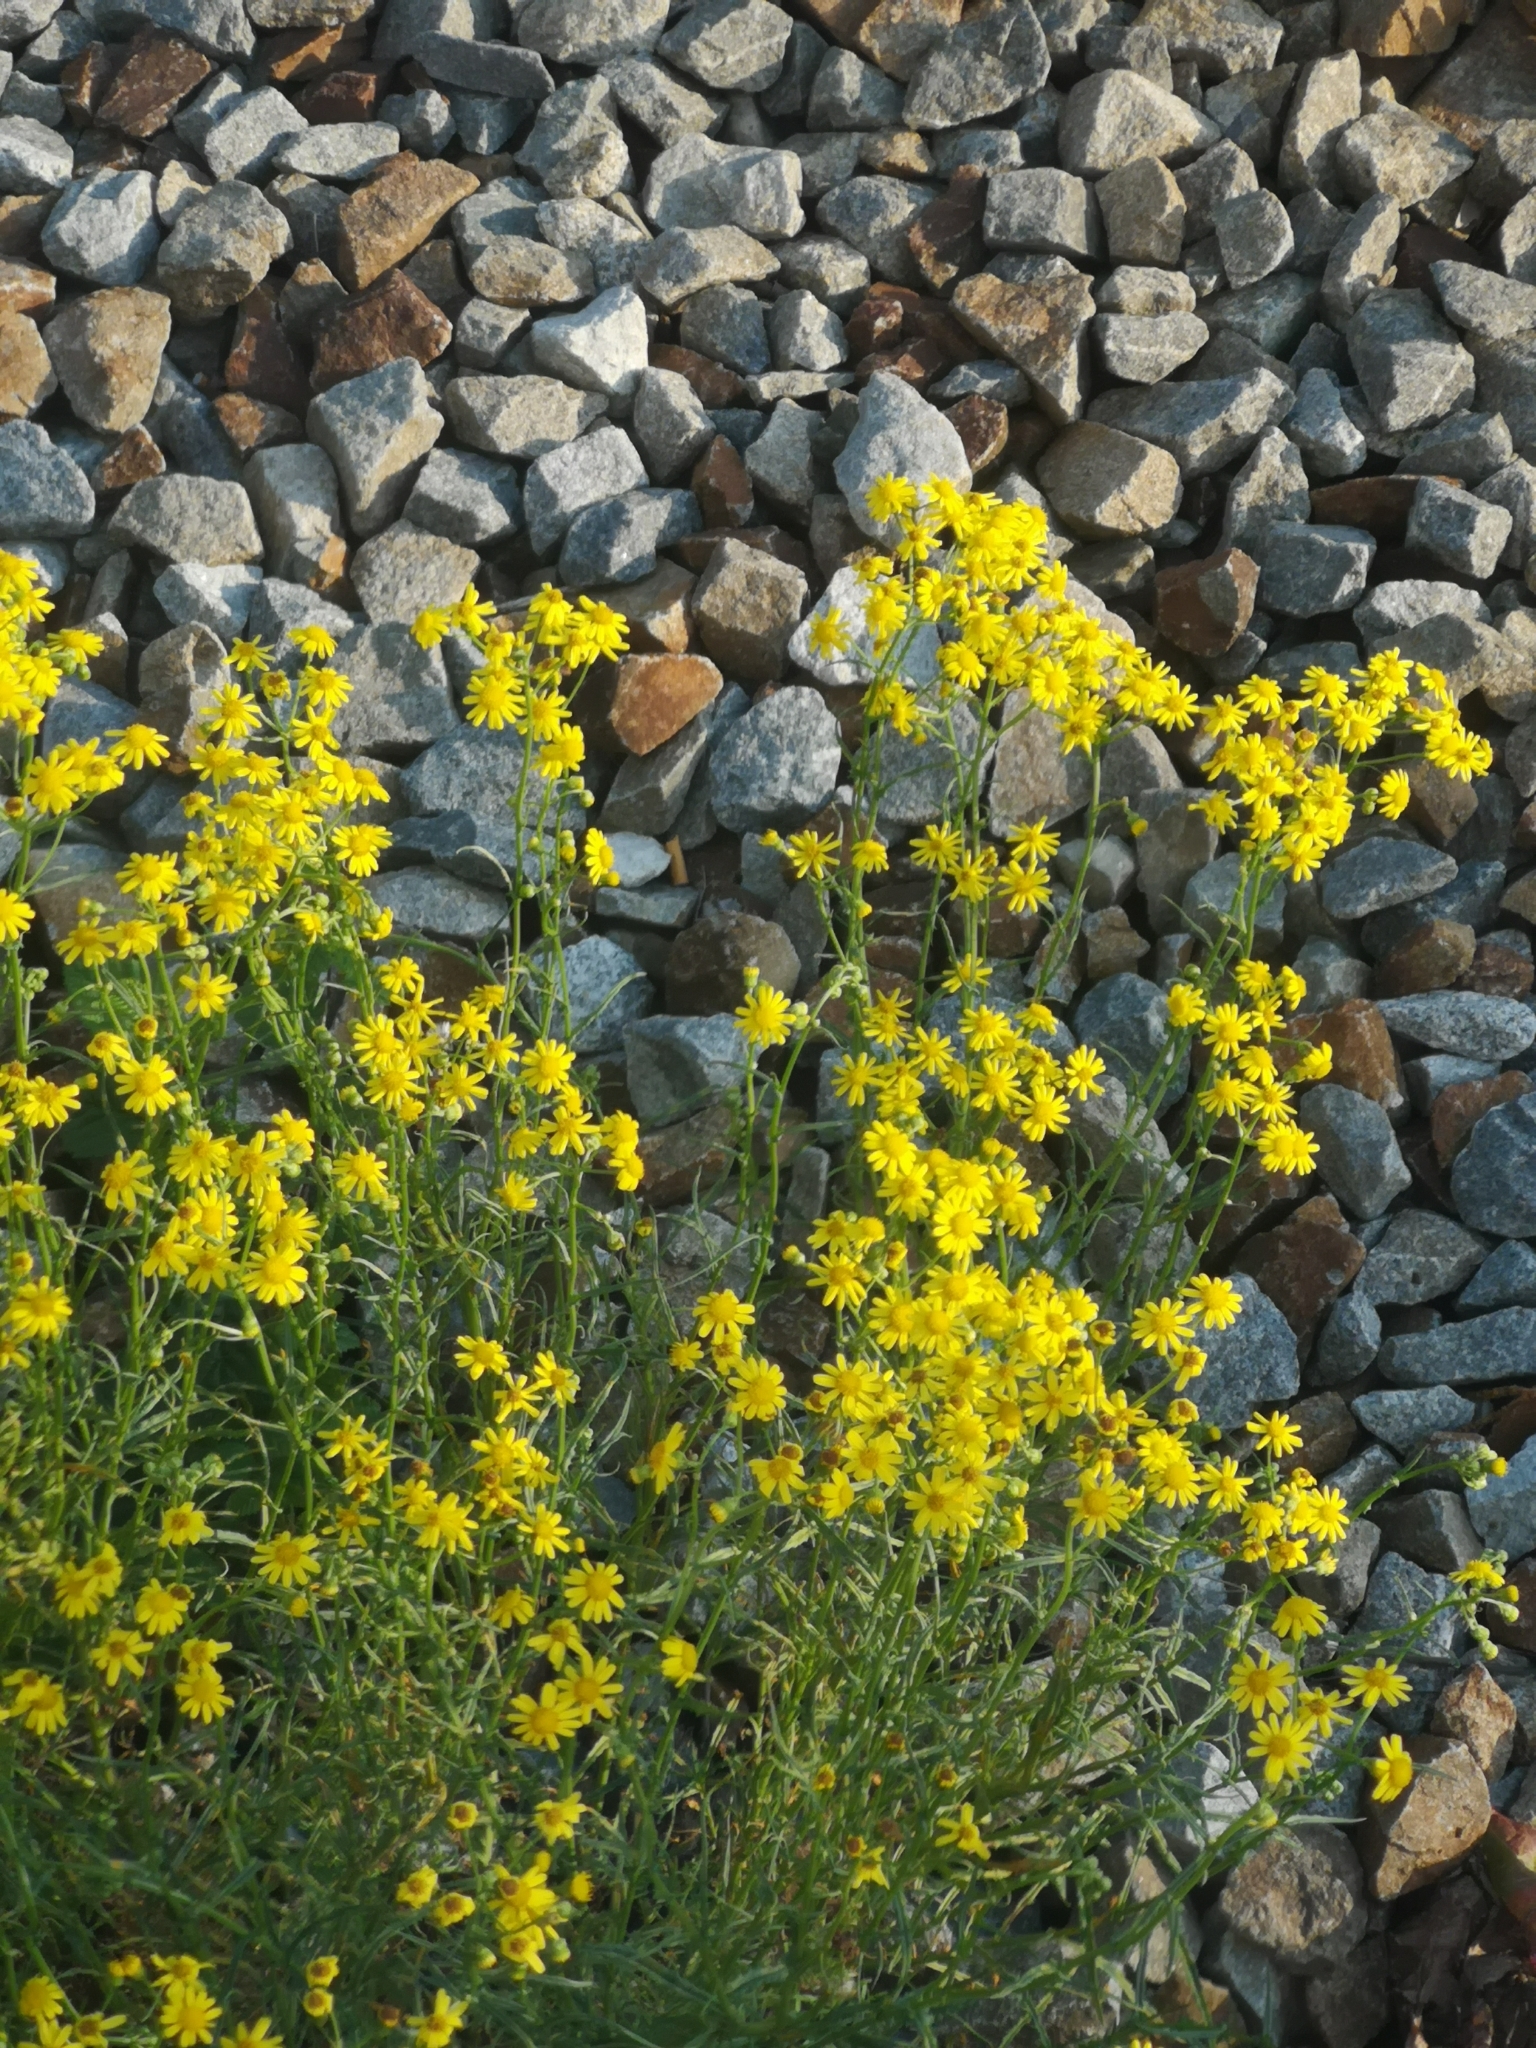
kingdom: Plantae
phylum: Tracheophyta
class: Magnoliopsida
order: Asterales
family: Asteraceae
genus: Senecio
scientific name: Senecio vernalis
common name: Eastern groundsel
